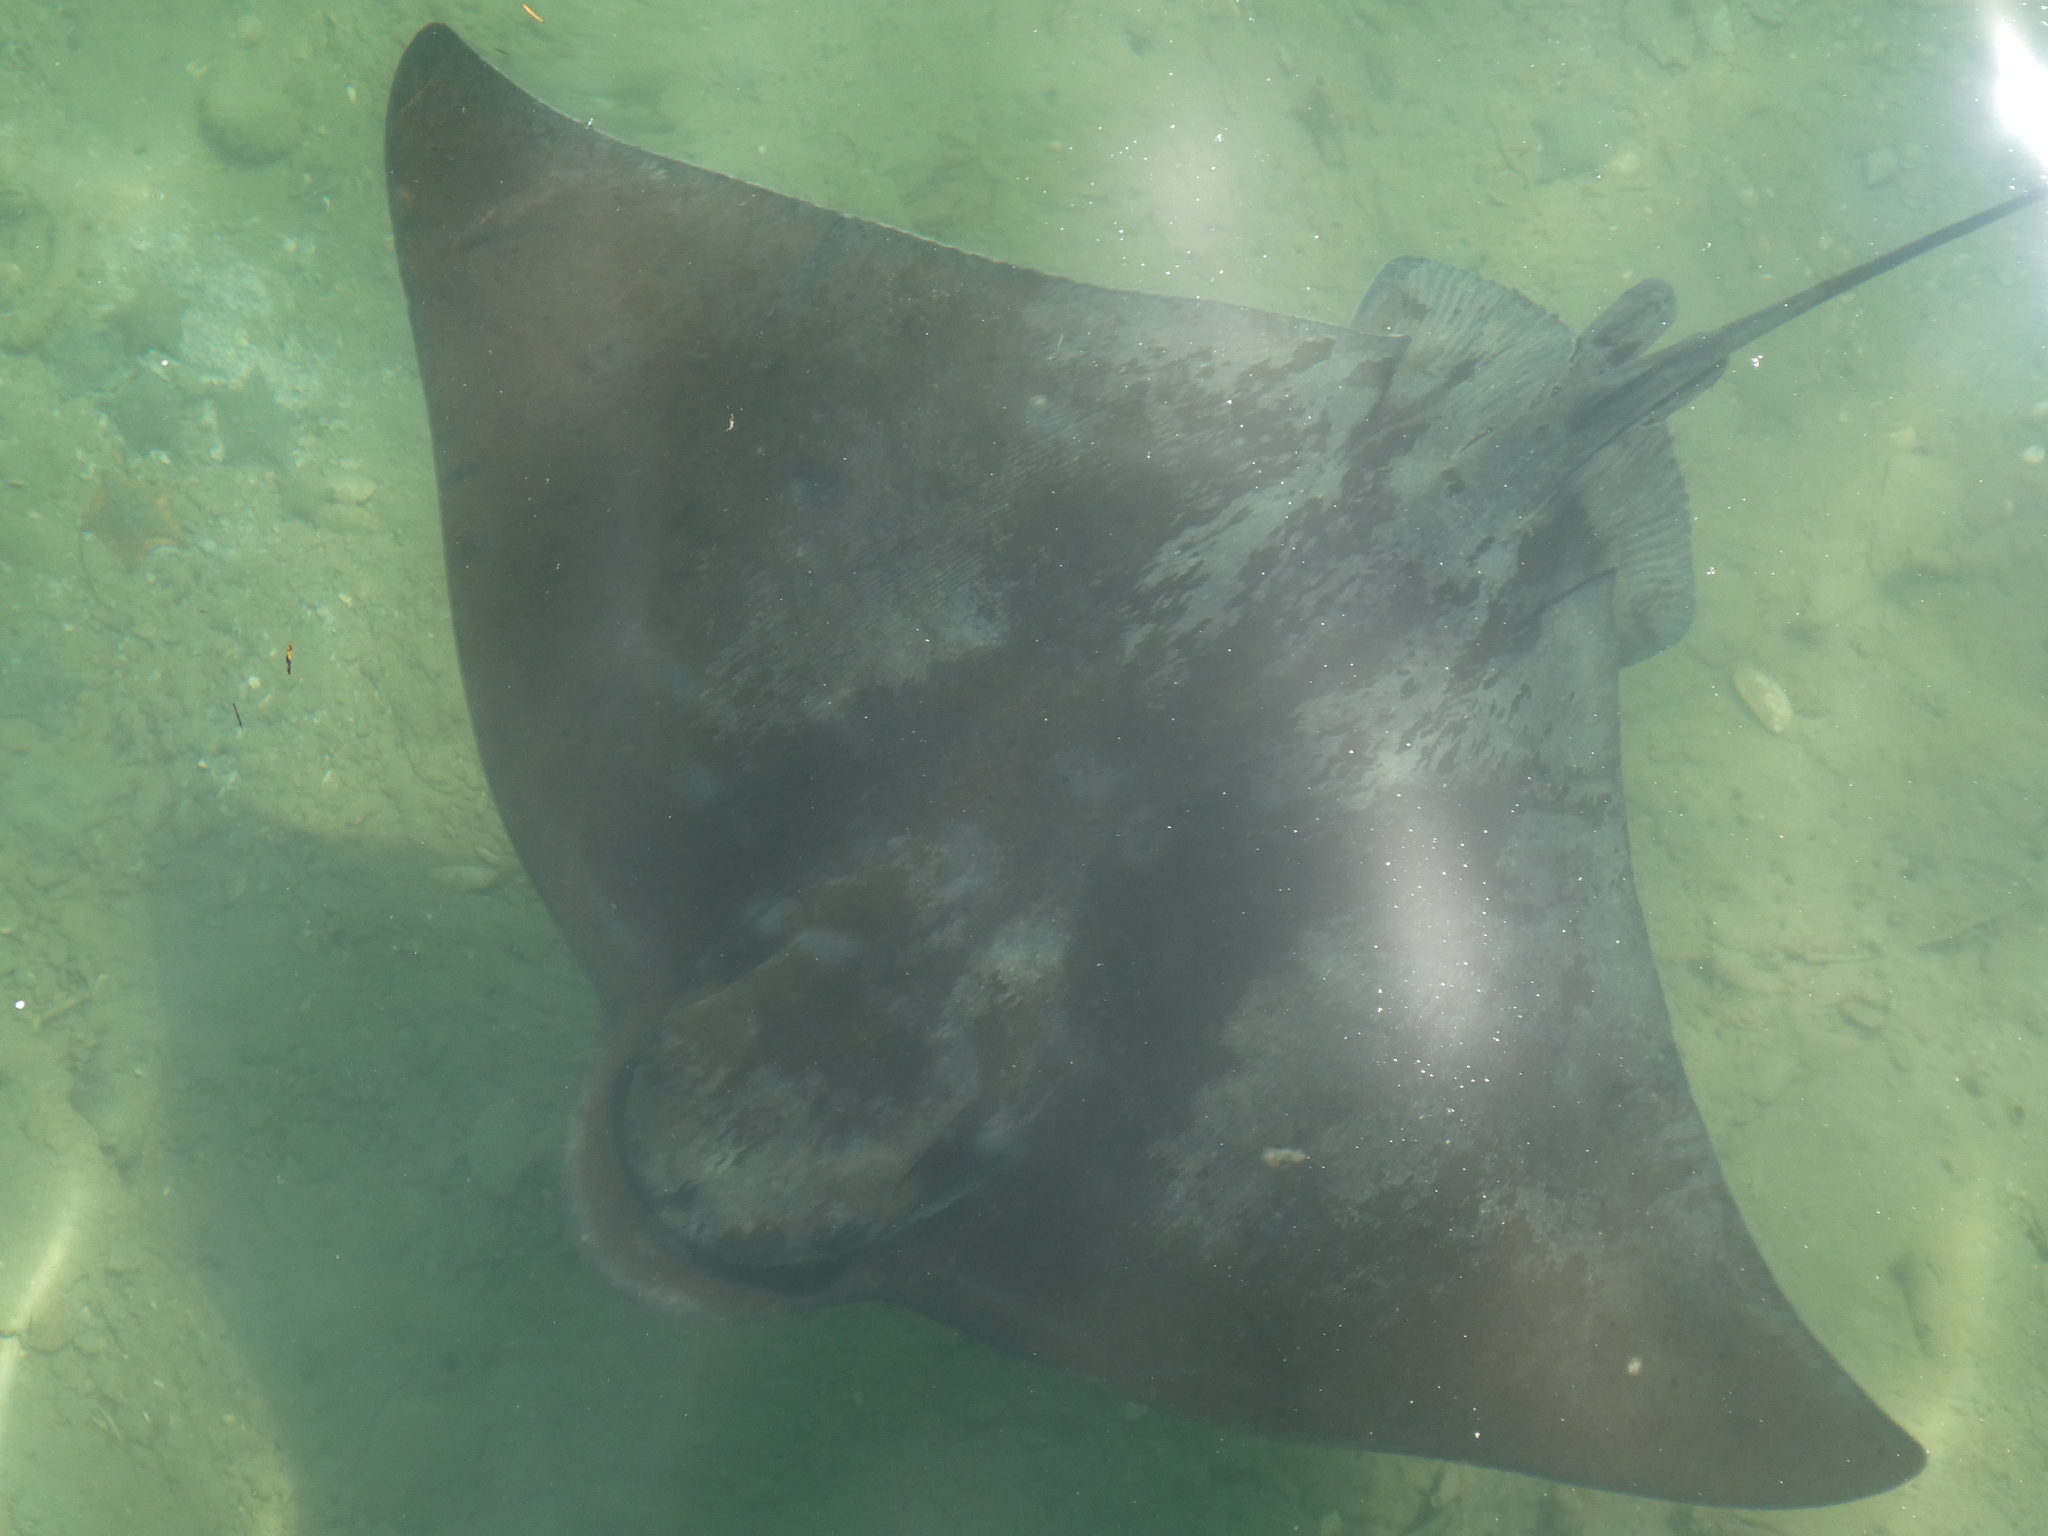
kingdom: Animalia
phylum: Chordata
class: Elasmobranchii
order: Myliobatiformes
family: Myliobatidae
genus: Myliobatis
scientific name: Myliobatis tenuicaudatus
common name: Eagle ray
